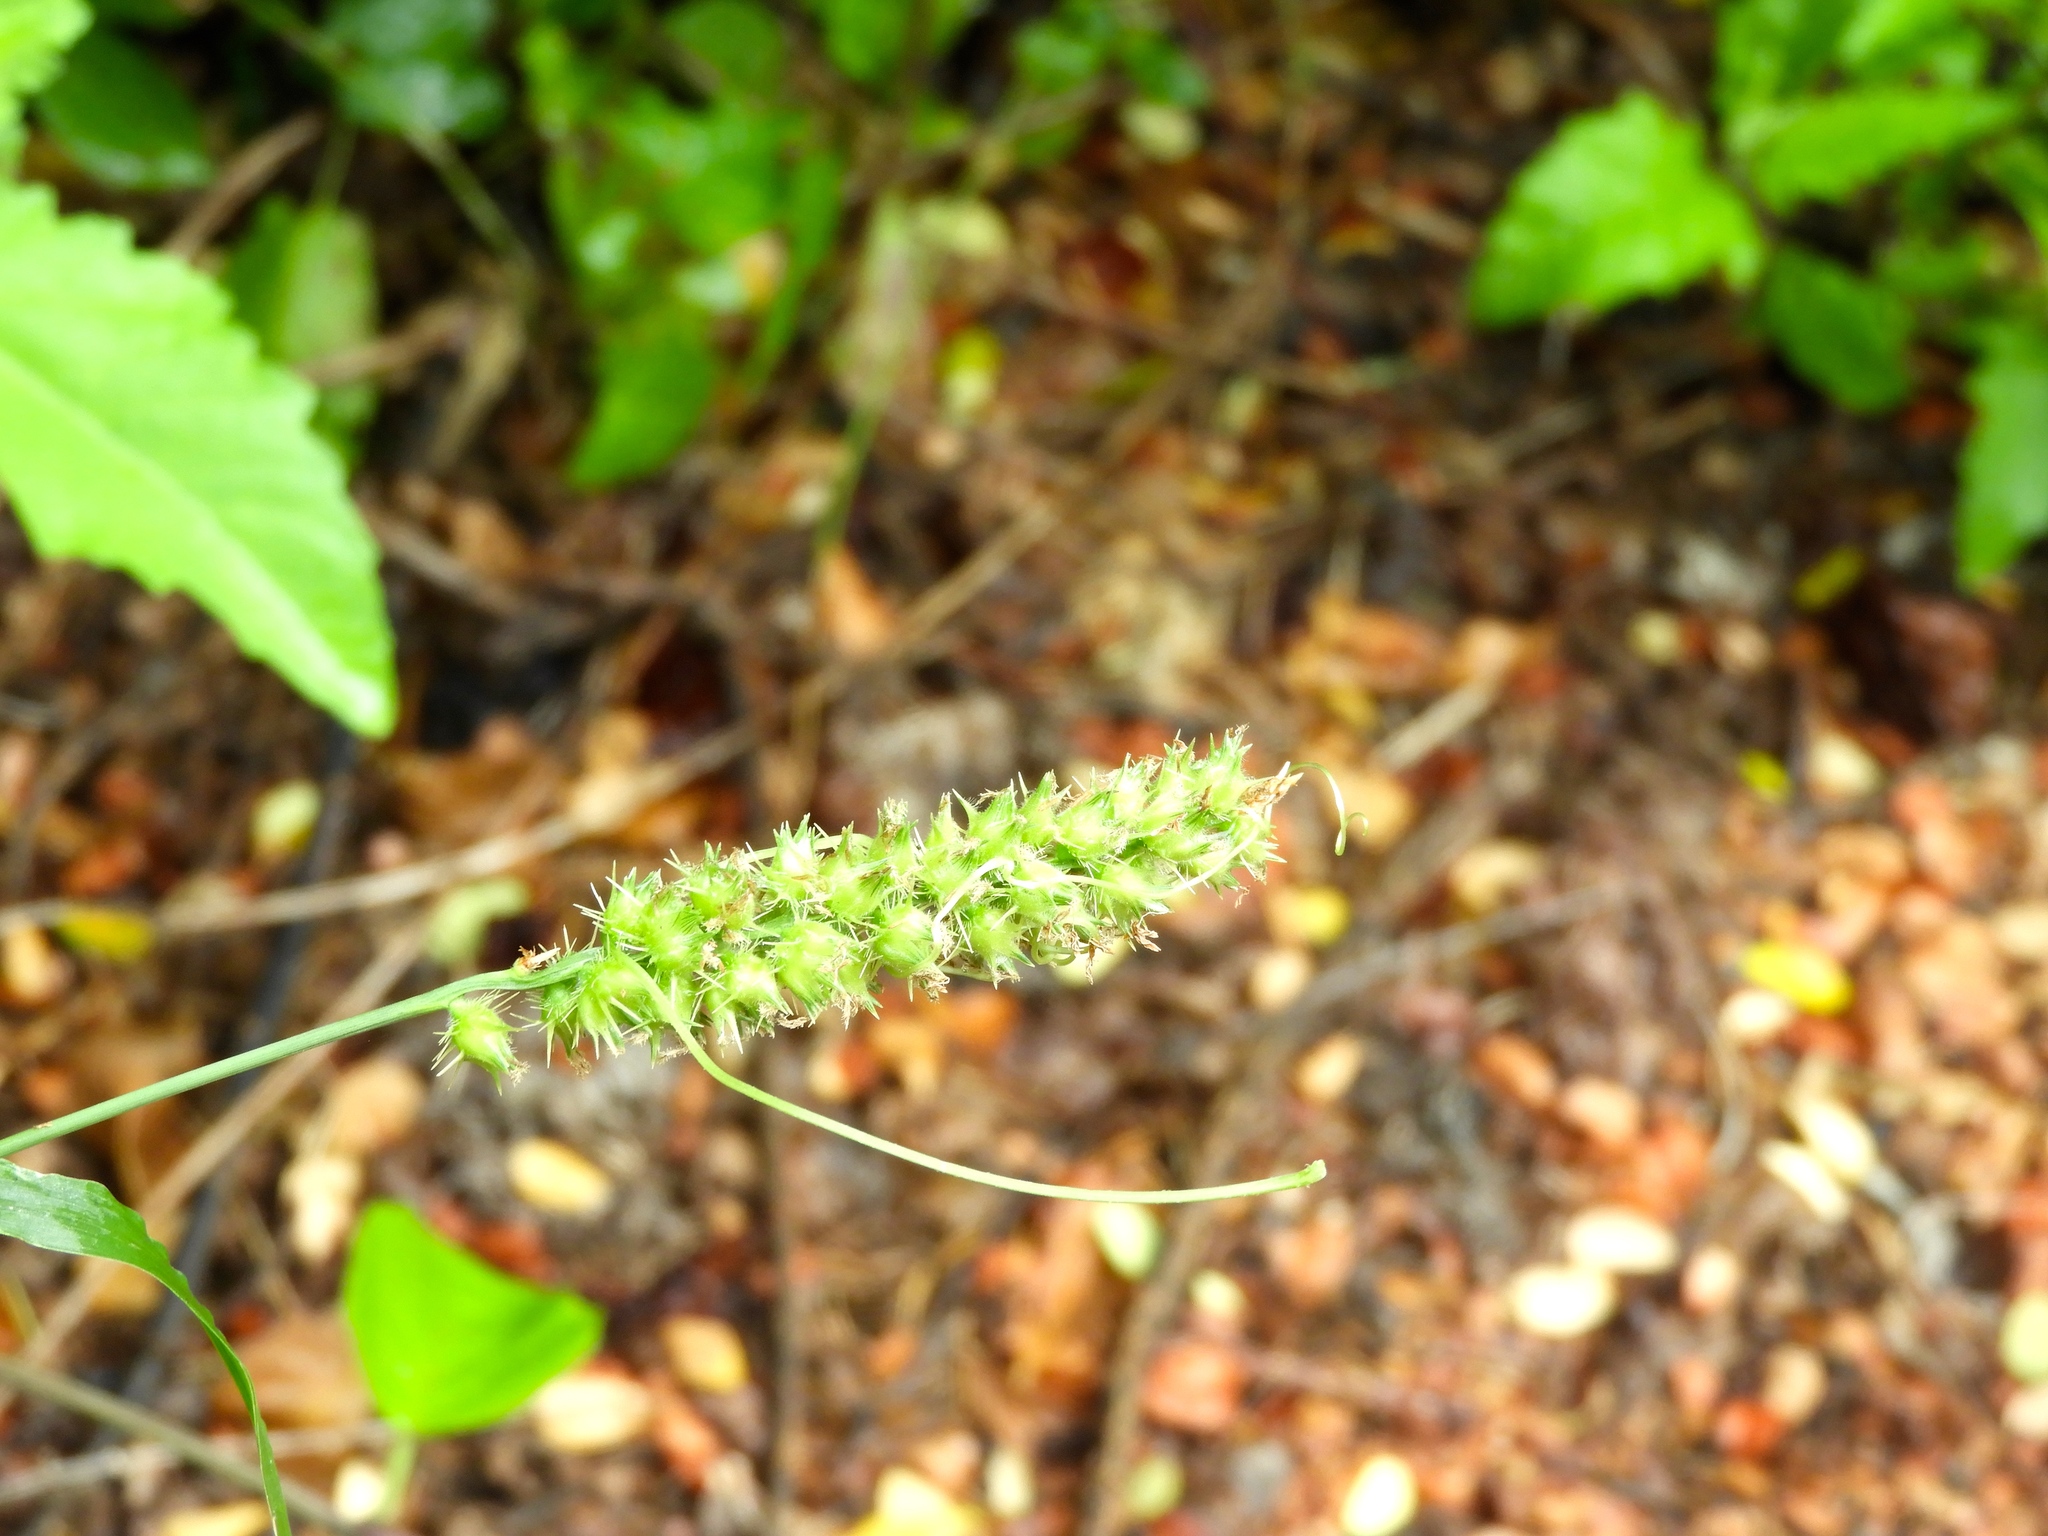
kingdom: Plantae
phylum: Tracheophyta
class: Liliopsida
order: Poales
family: Poaceae
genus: Cenchrus
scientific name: Cenchrus echinatus
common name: Southern sandbur
